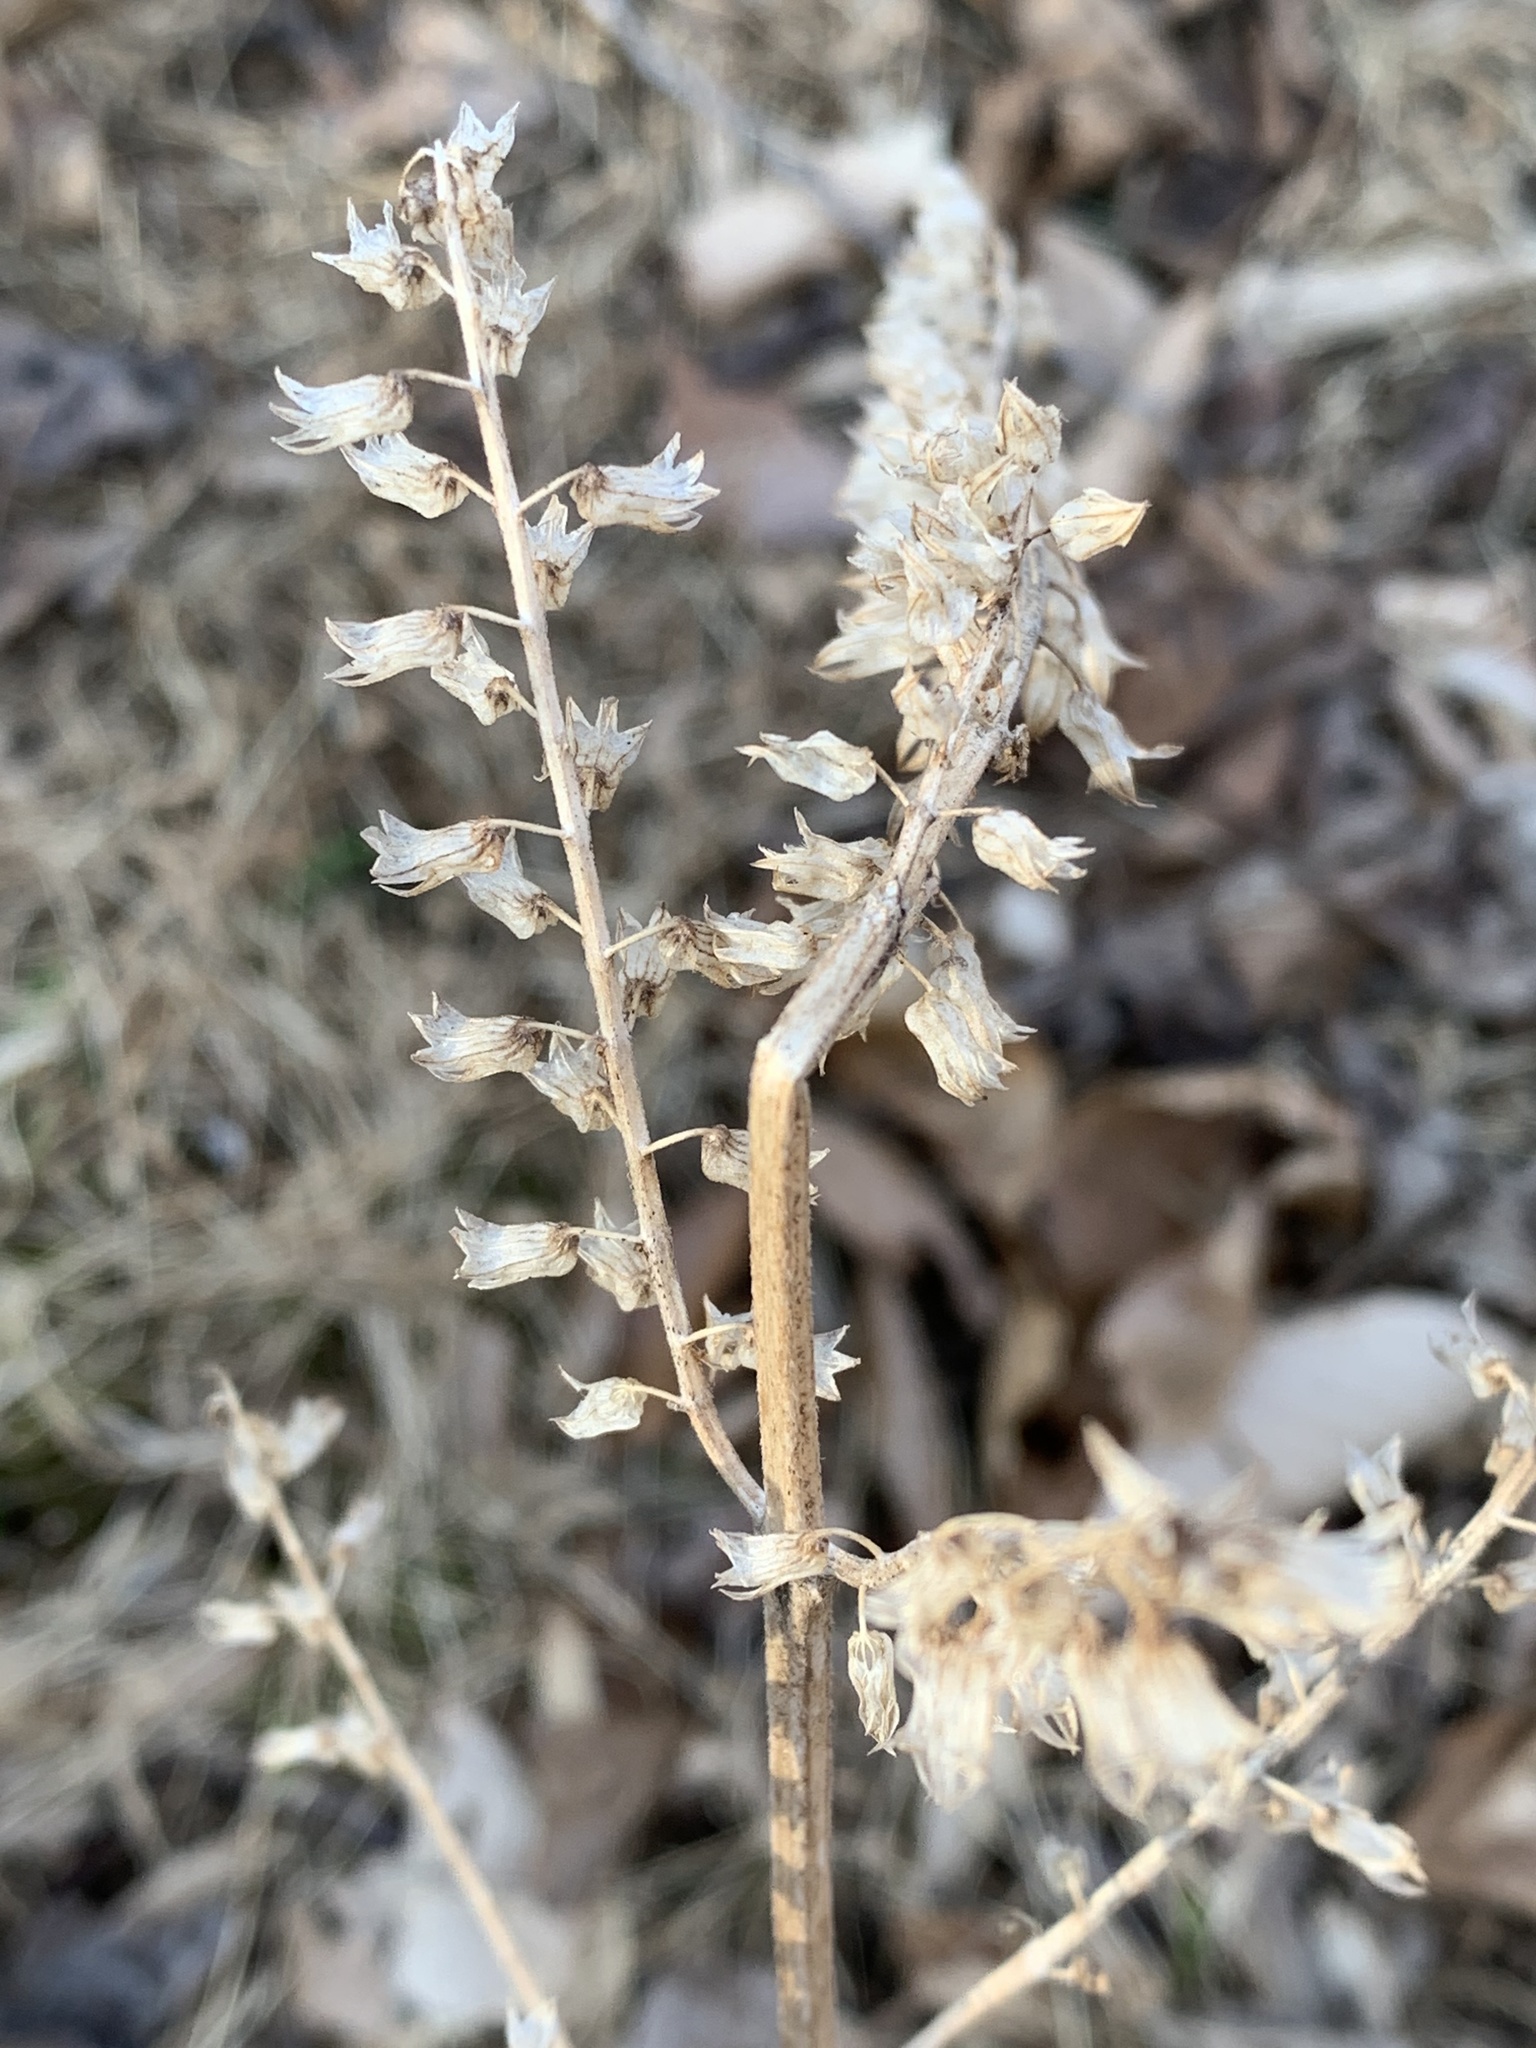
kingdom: Plantae
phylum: Tracheophyta
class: Magnoliopsida
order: Lamiales
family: Lamiaceae
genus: Perilla
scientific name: Perilla frutescens
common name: Perilla
